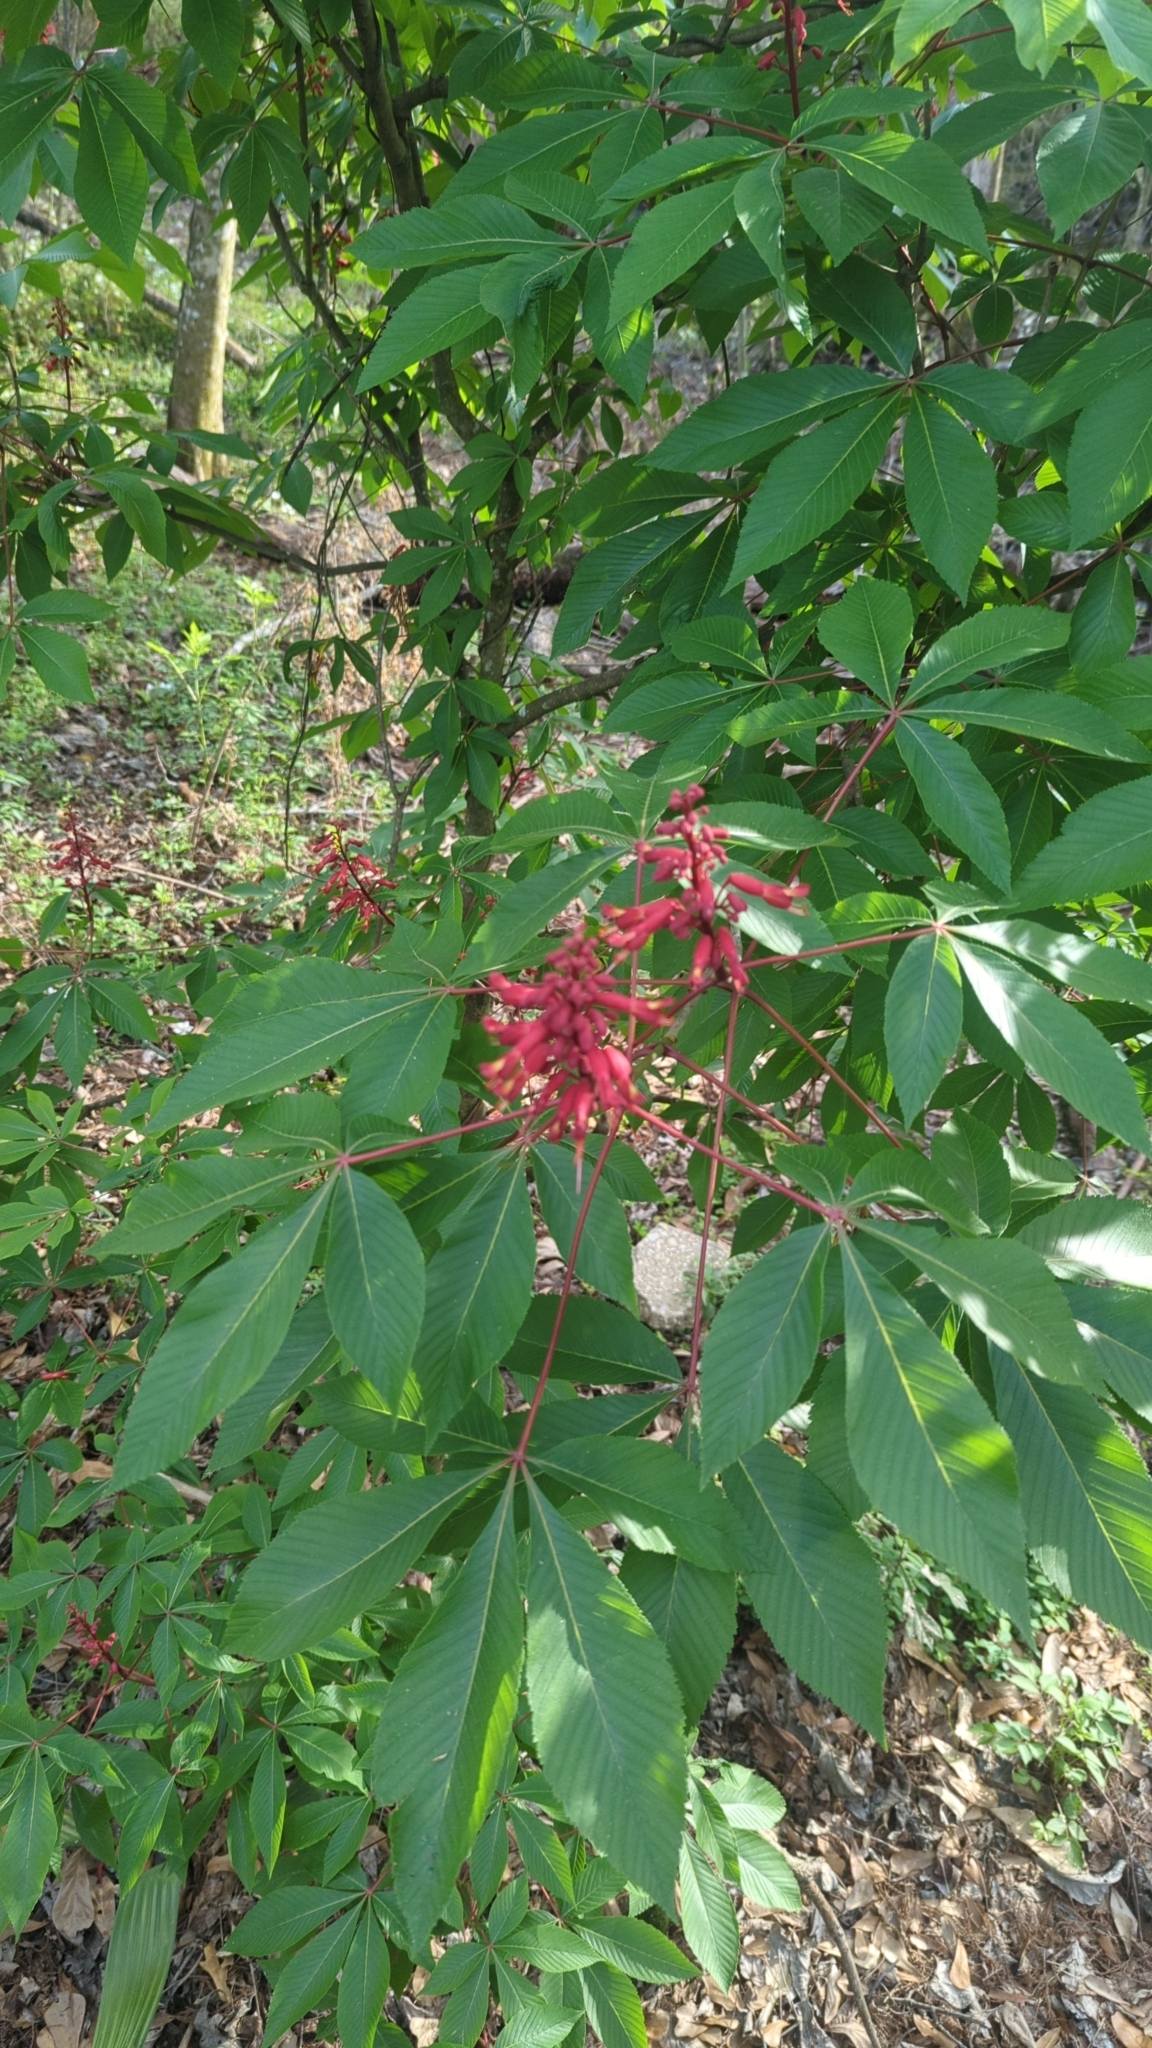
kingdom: Plantae
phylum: Tracheophyta
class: Magnoliopsida
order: Sapindales
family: Sapindaceae
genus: Aesculus
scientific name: Aesculus pavia
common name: Red buckeye
